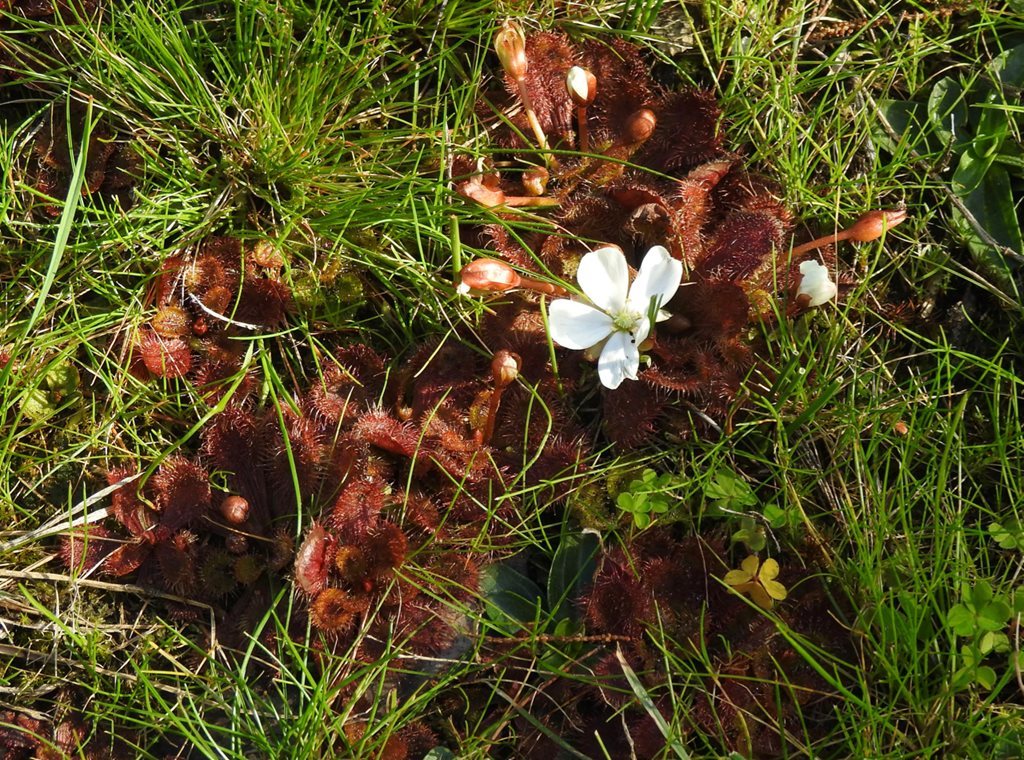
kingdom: Plantae
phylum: Tracheophyta
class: Magnoliopsida
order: Caryophyllales
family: Droseraceae
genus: Drosera
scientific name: Drosera aberrans
